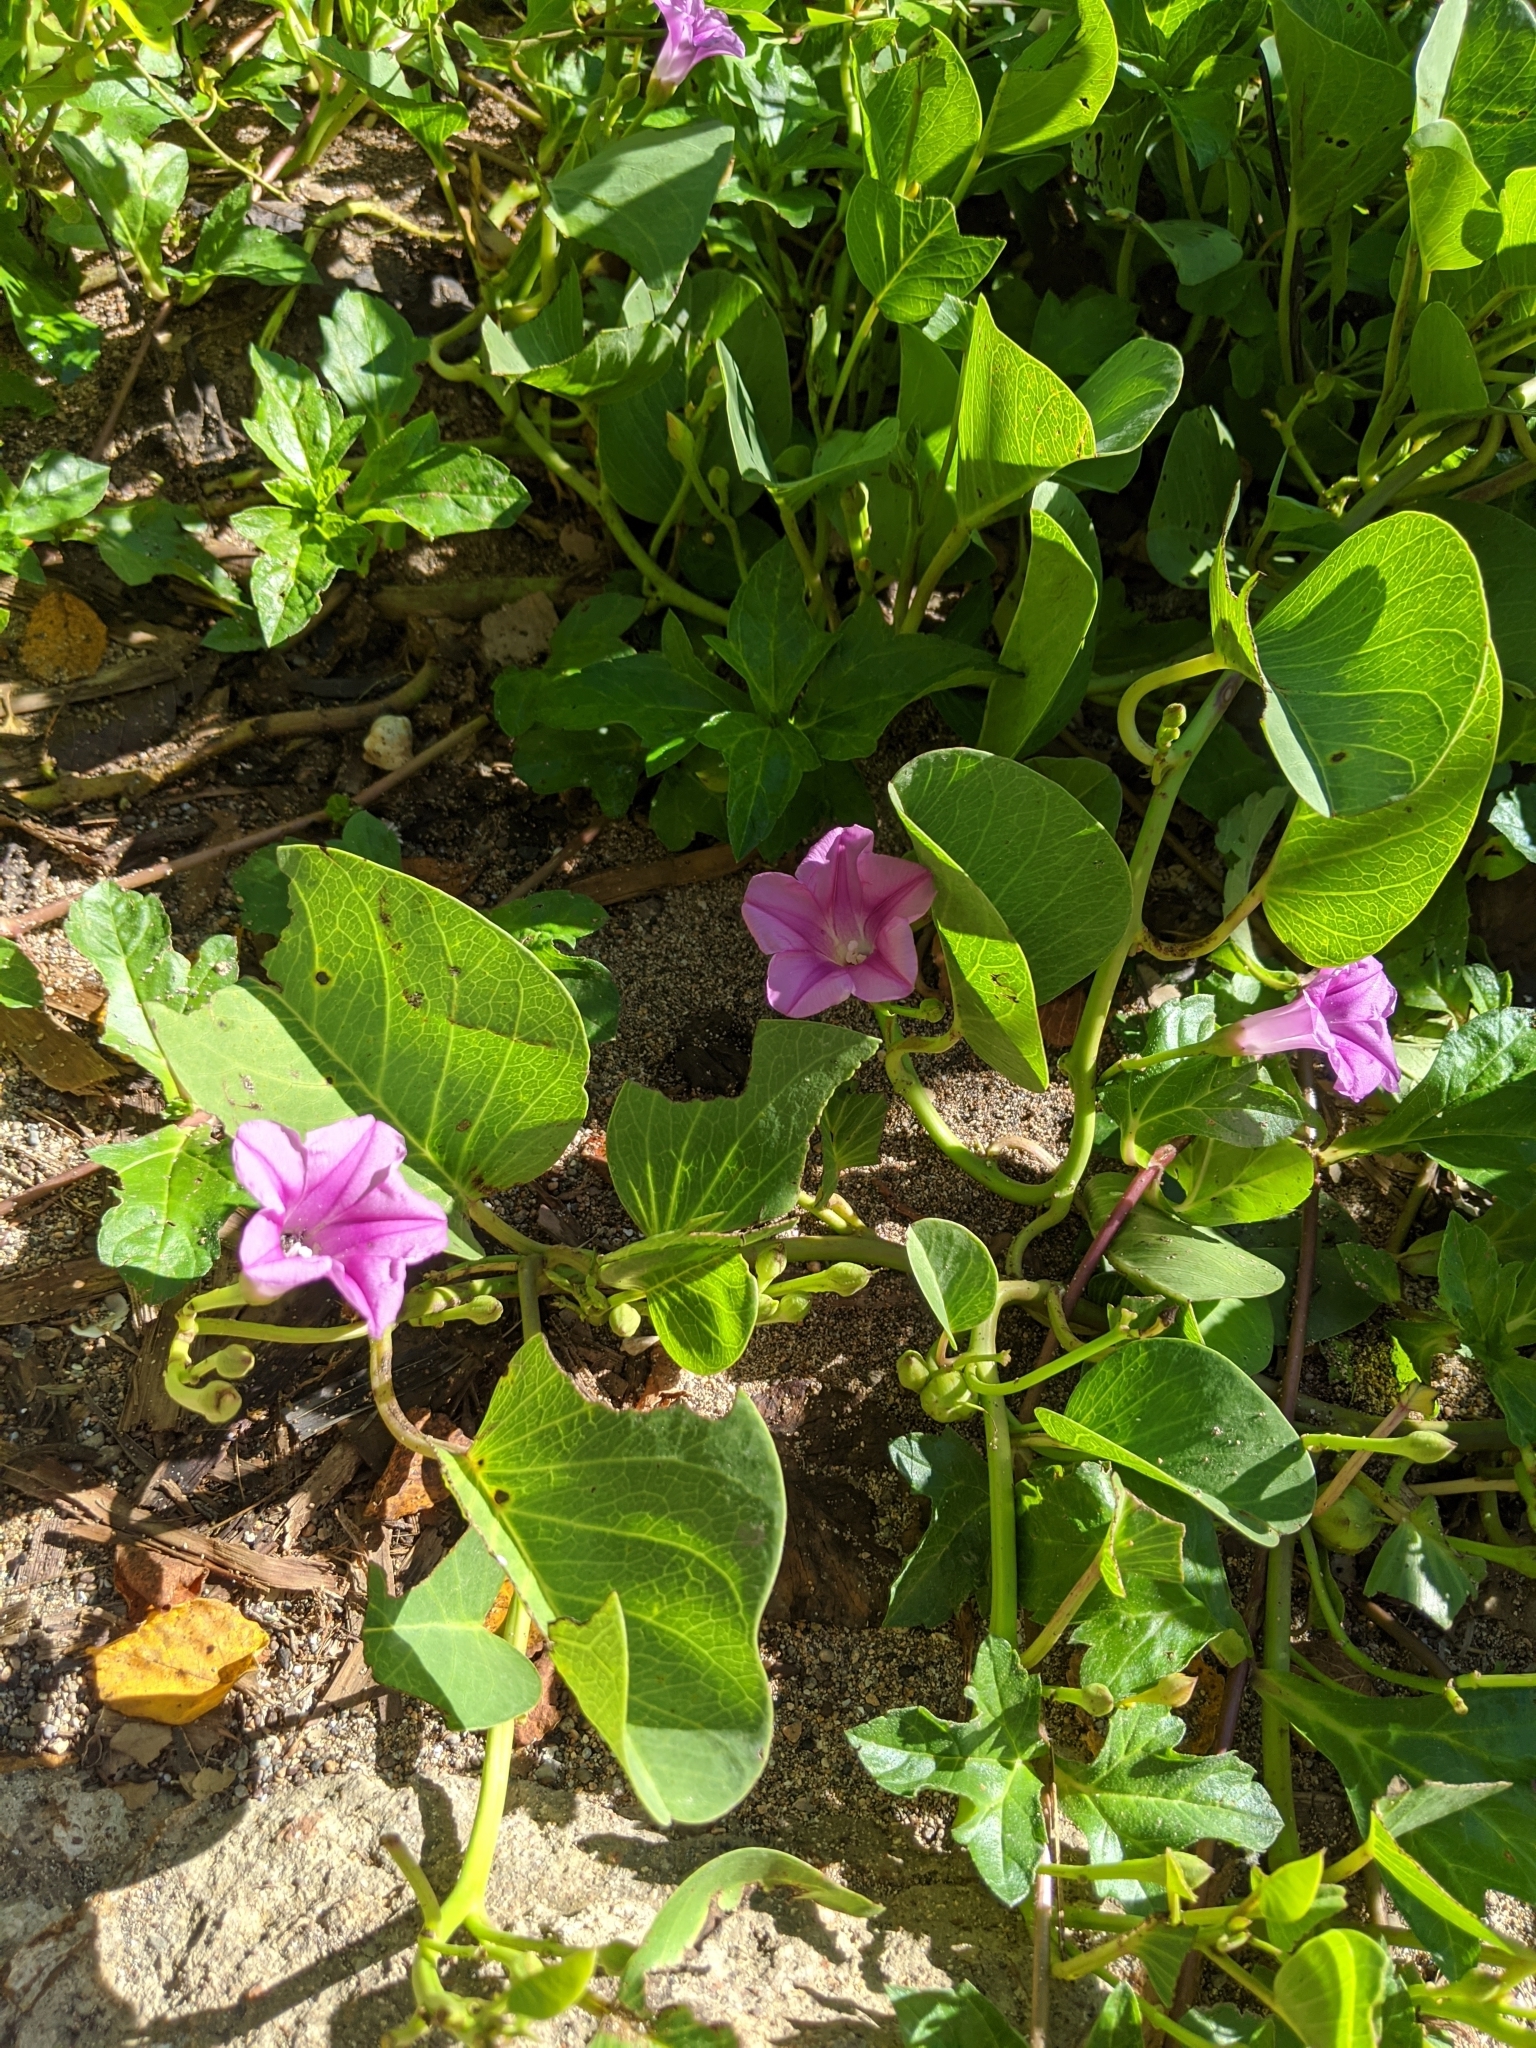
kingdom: Plantae
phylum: Tracheophyta
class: Magnoliopsida
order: Solanales
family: Convolvulaceae
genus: Ipomoea
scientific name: Ipomoea pes-caprae
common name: Beach morning glory
